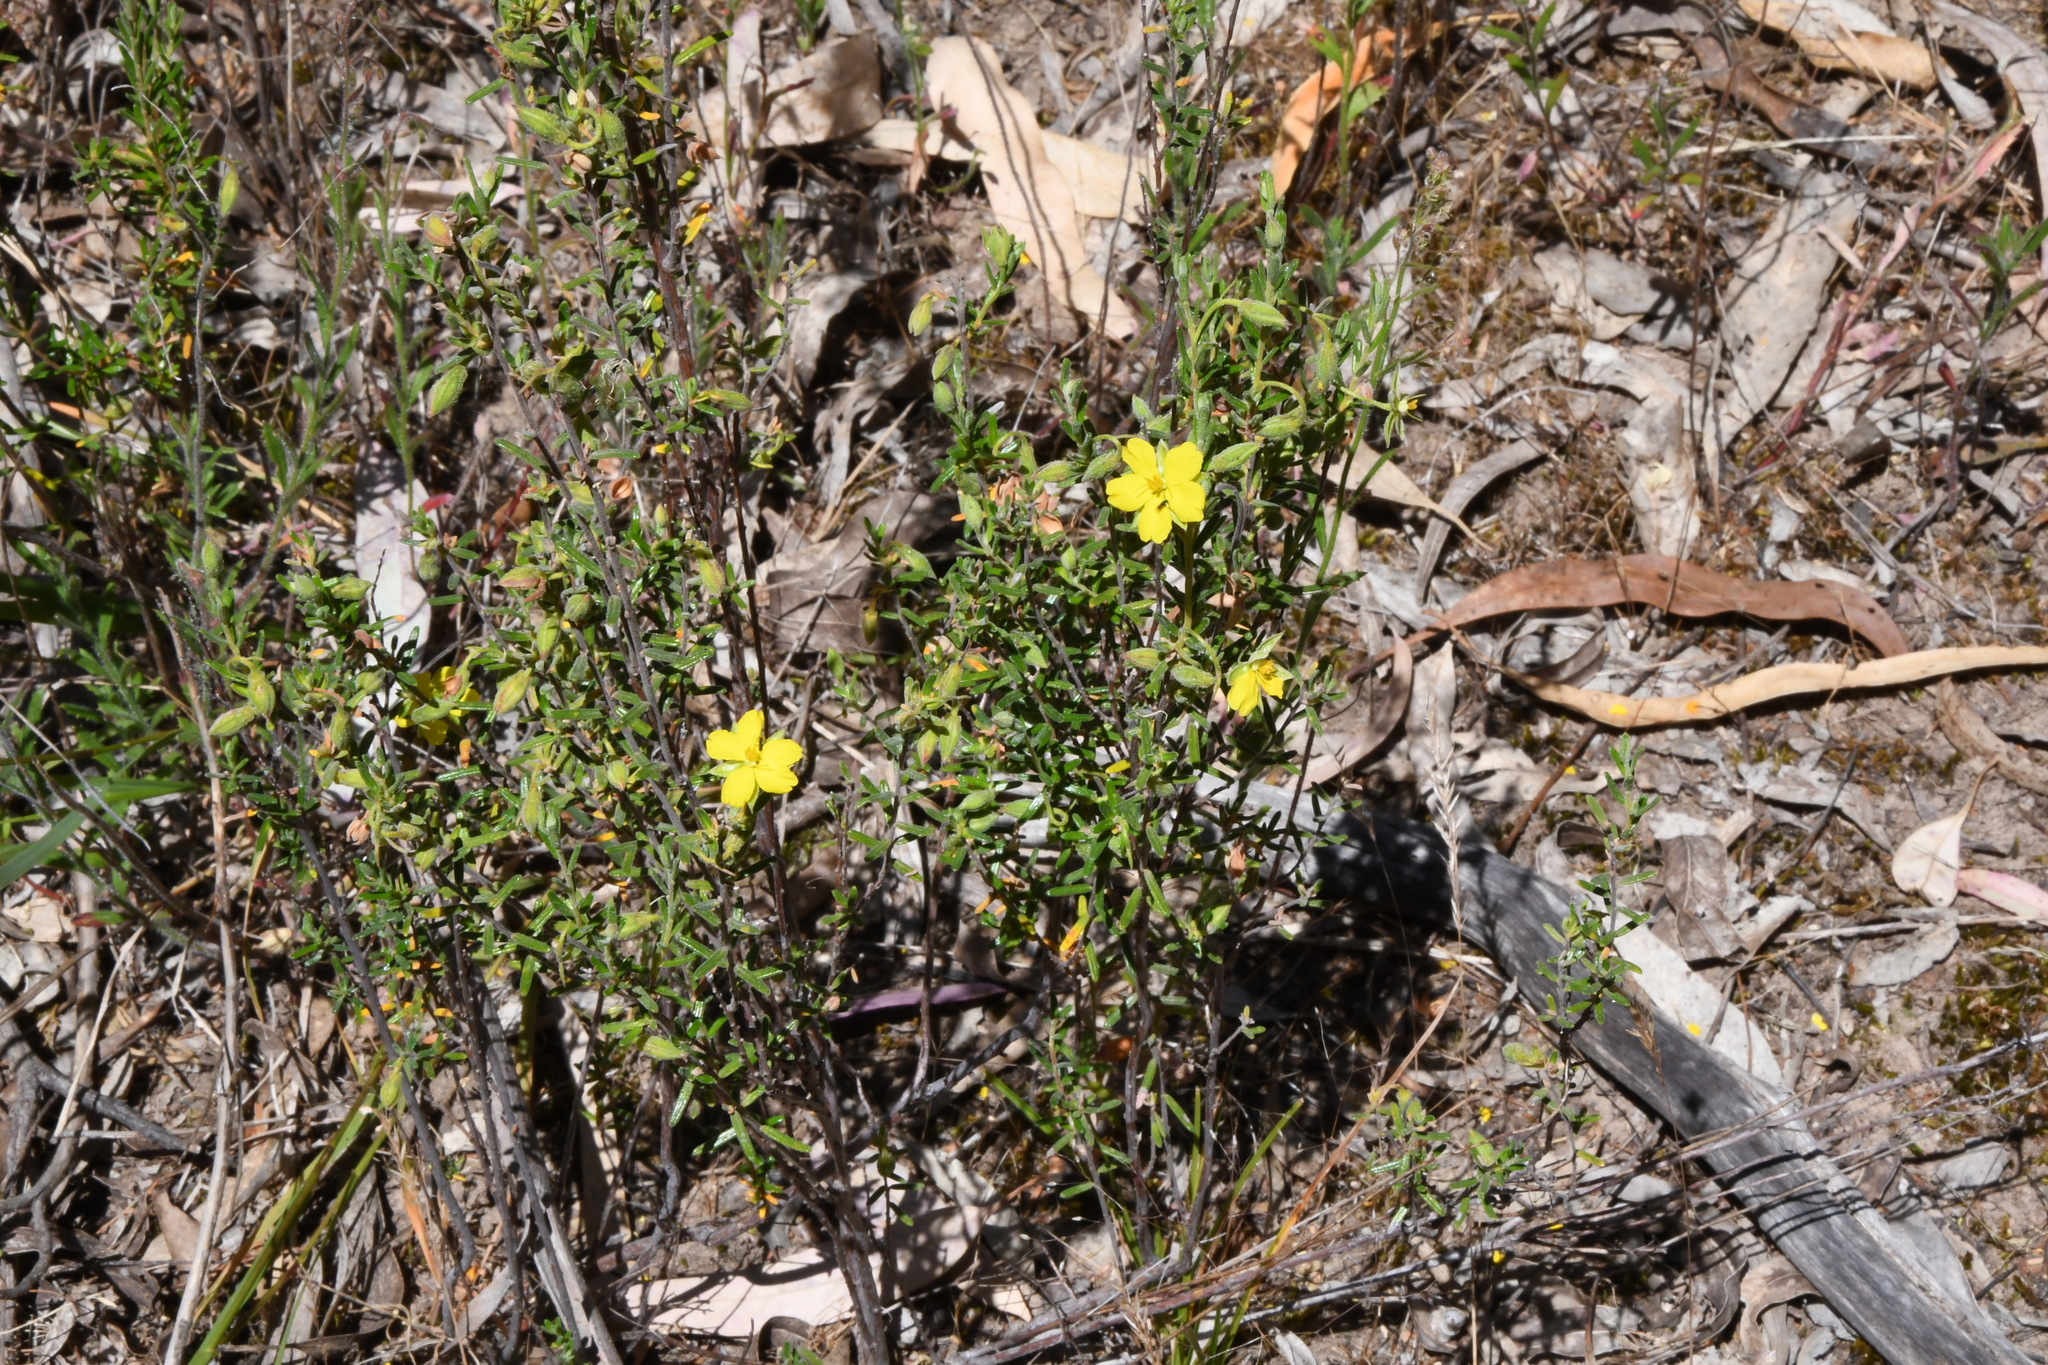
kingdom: Plantae
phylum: Tracheophyta
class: Magnoliopsida
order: Dilleniales
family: Dilleniaceae
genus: Hibbertia
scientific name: Hibbertia australis
